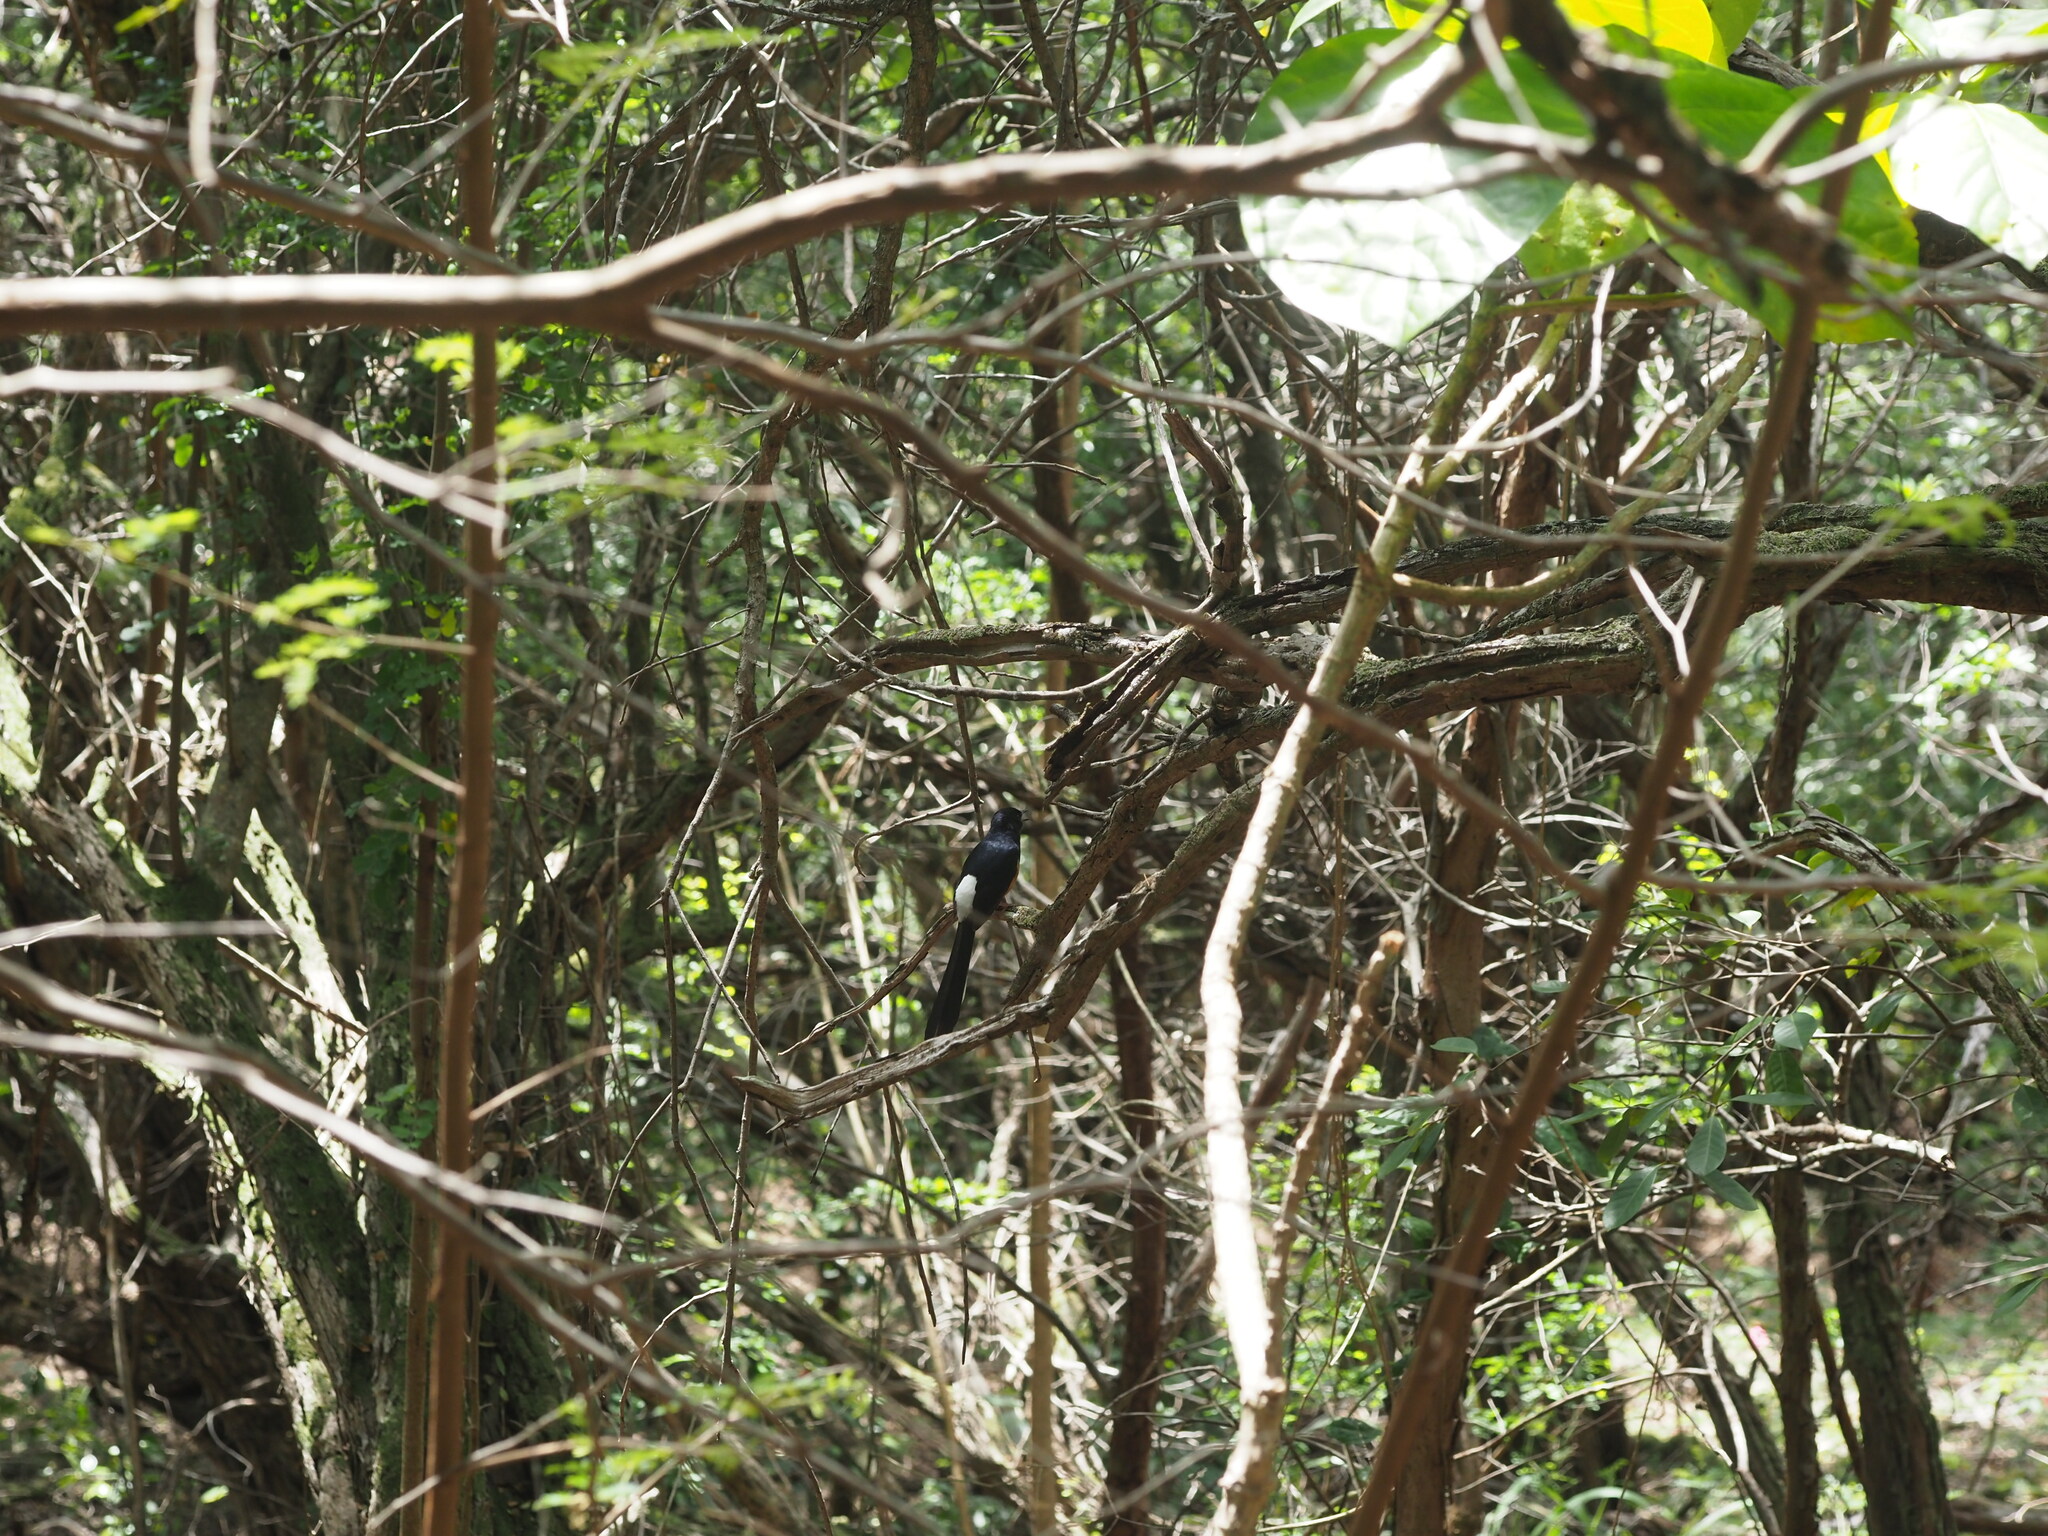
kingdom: Animalia
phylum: Chordata
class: Aves
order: Passeriformes
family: Muscicapidae
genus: Copsychus
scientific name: Copsychus malabaricus
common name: White-rumped shama
